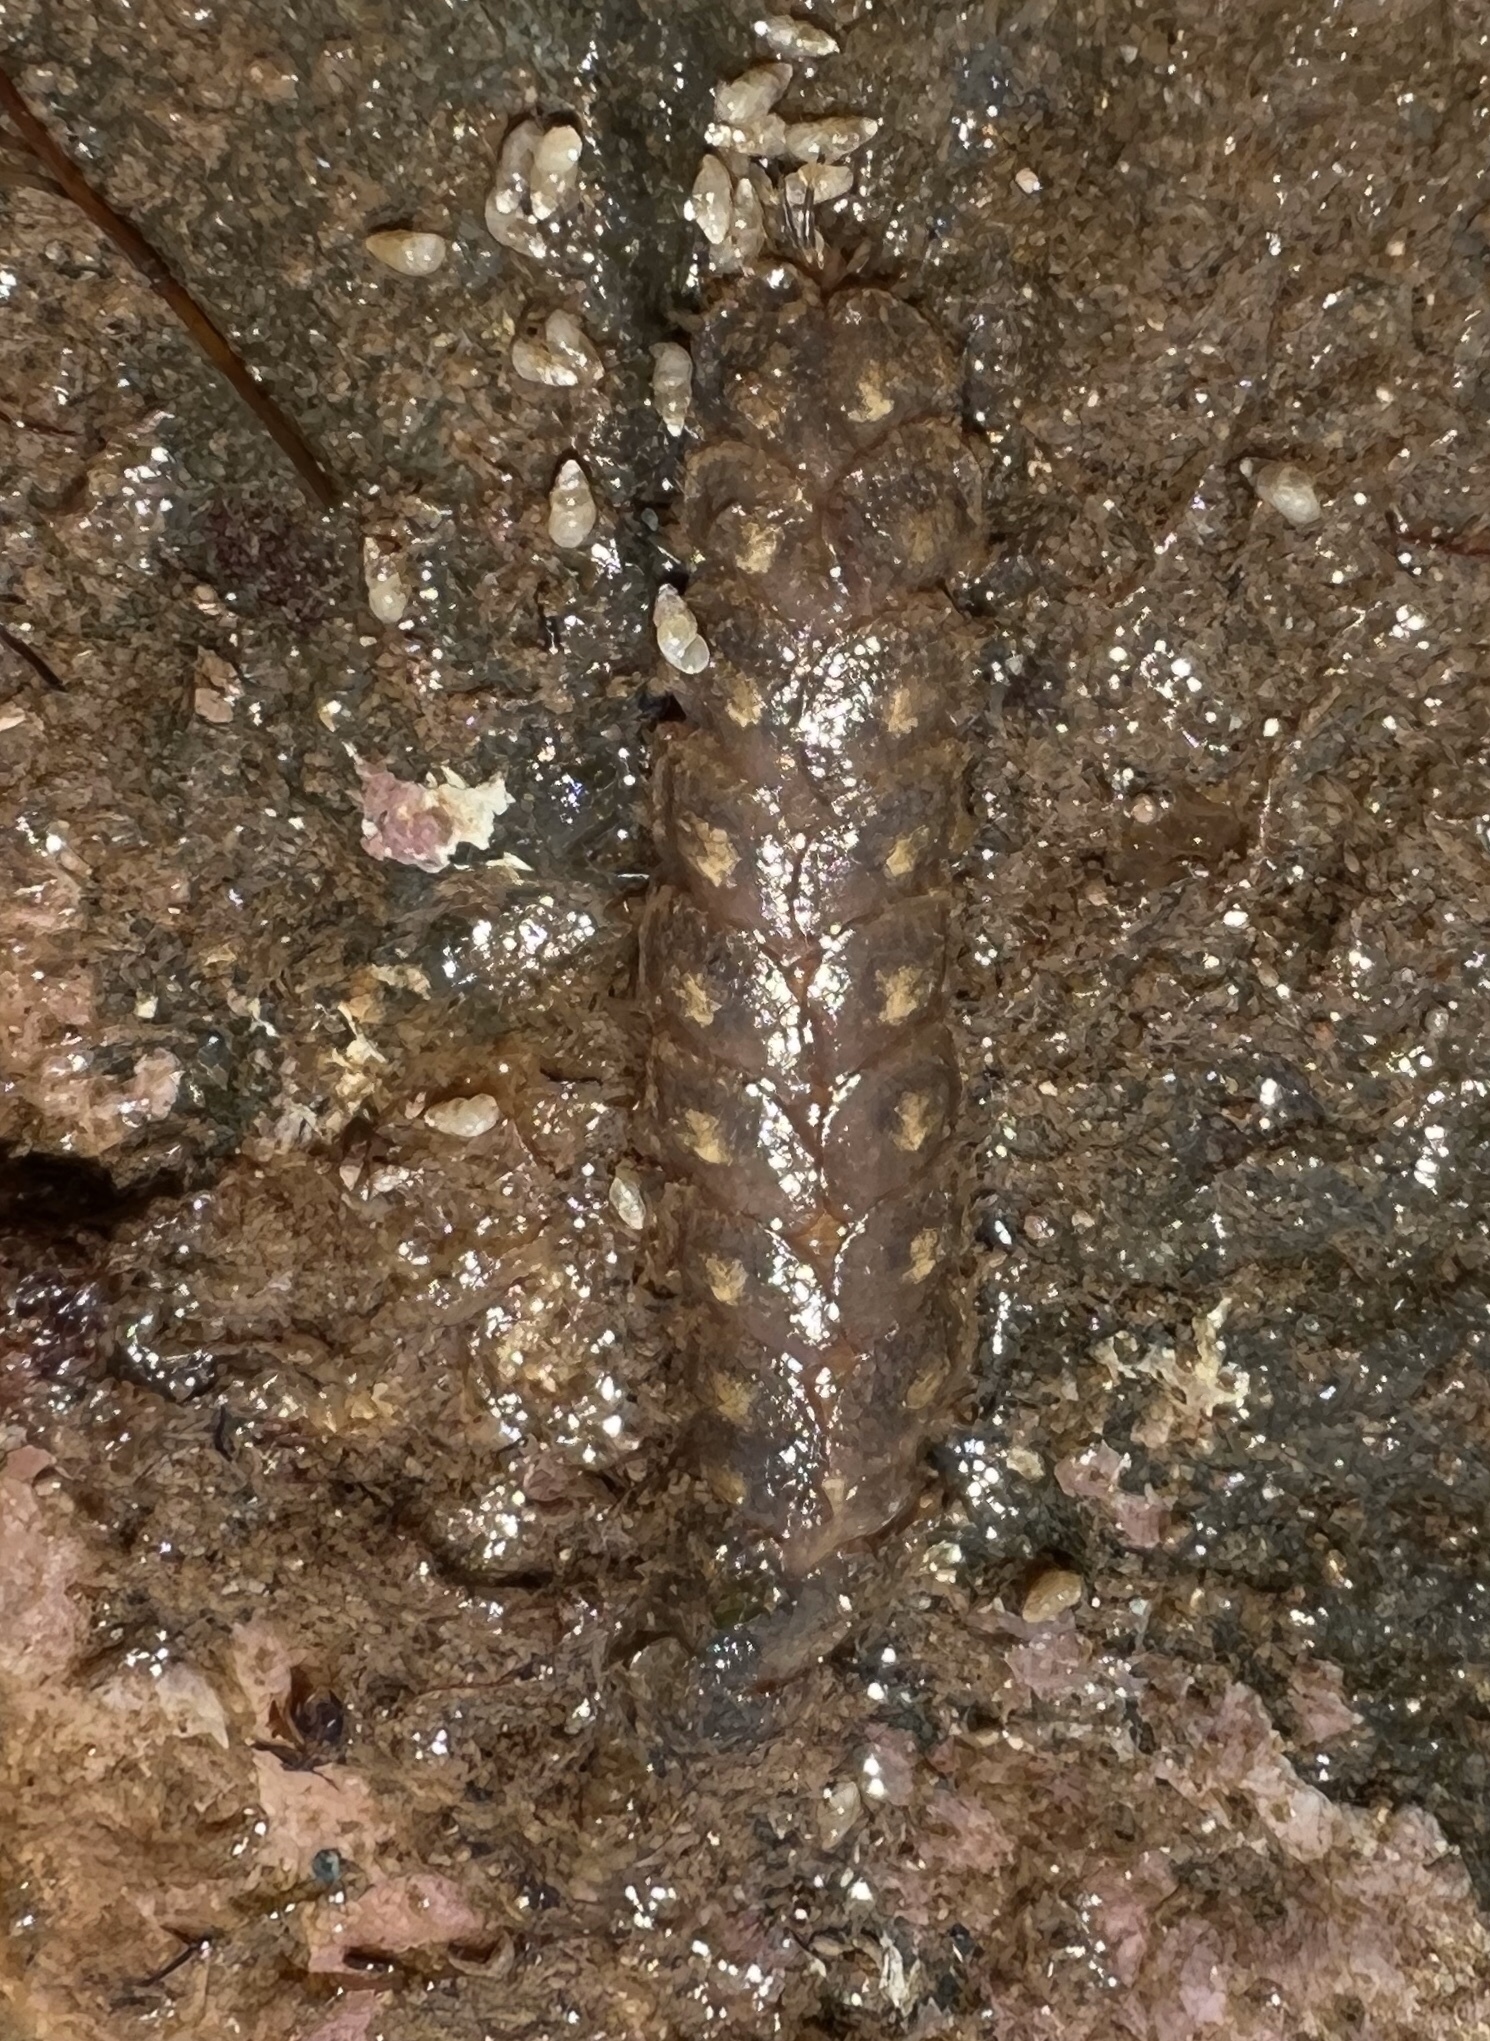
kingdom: Animalia
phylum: Annelida
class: Polychaeta
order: Phyllodocida
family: Polynoidae
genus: Lepidonotus
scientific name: Lepidonotus squamatus
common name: Twelve-scaled worm
